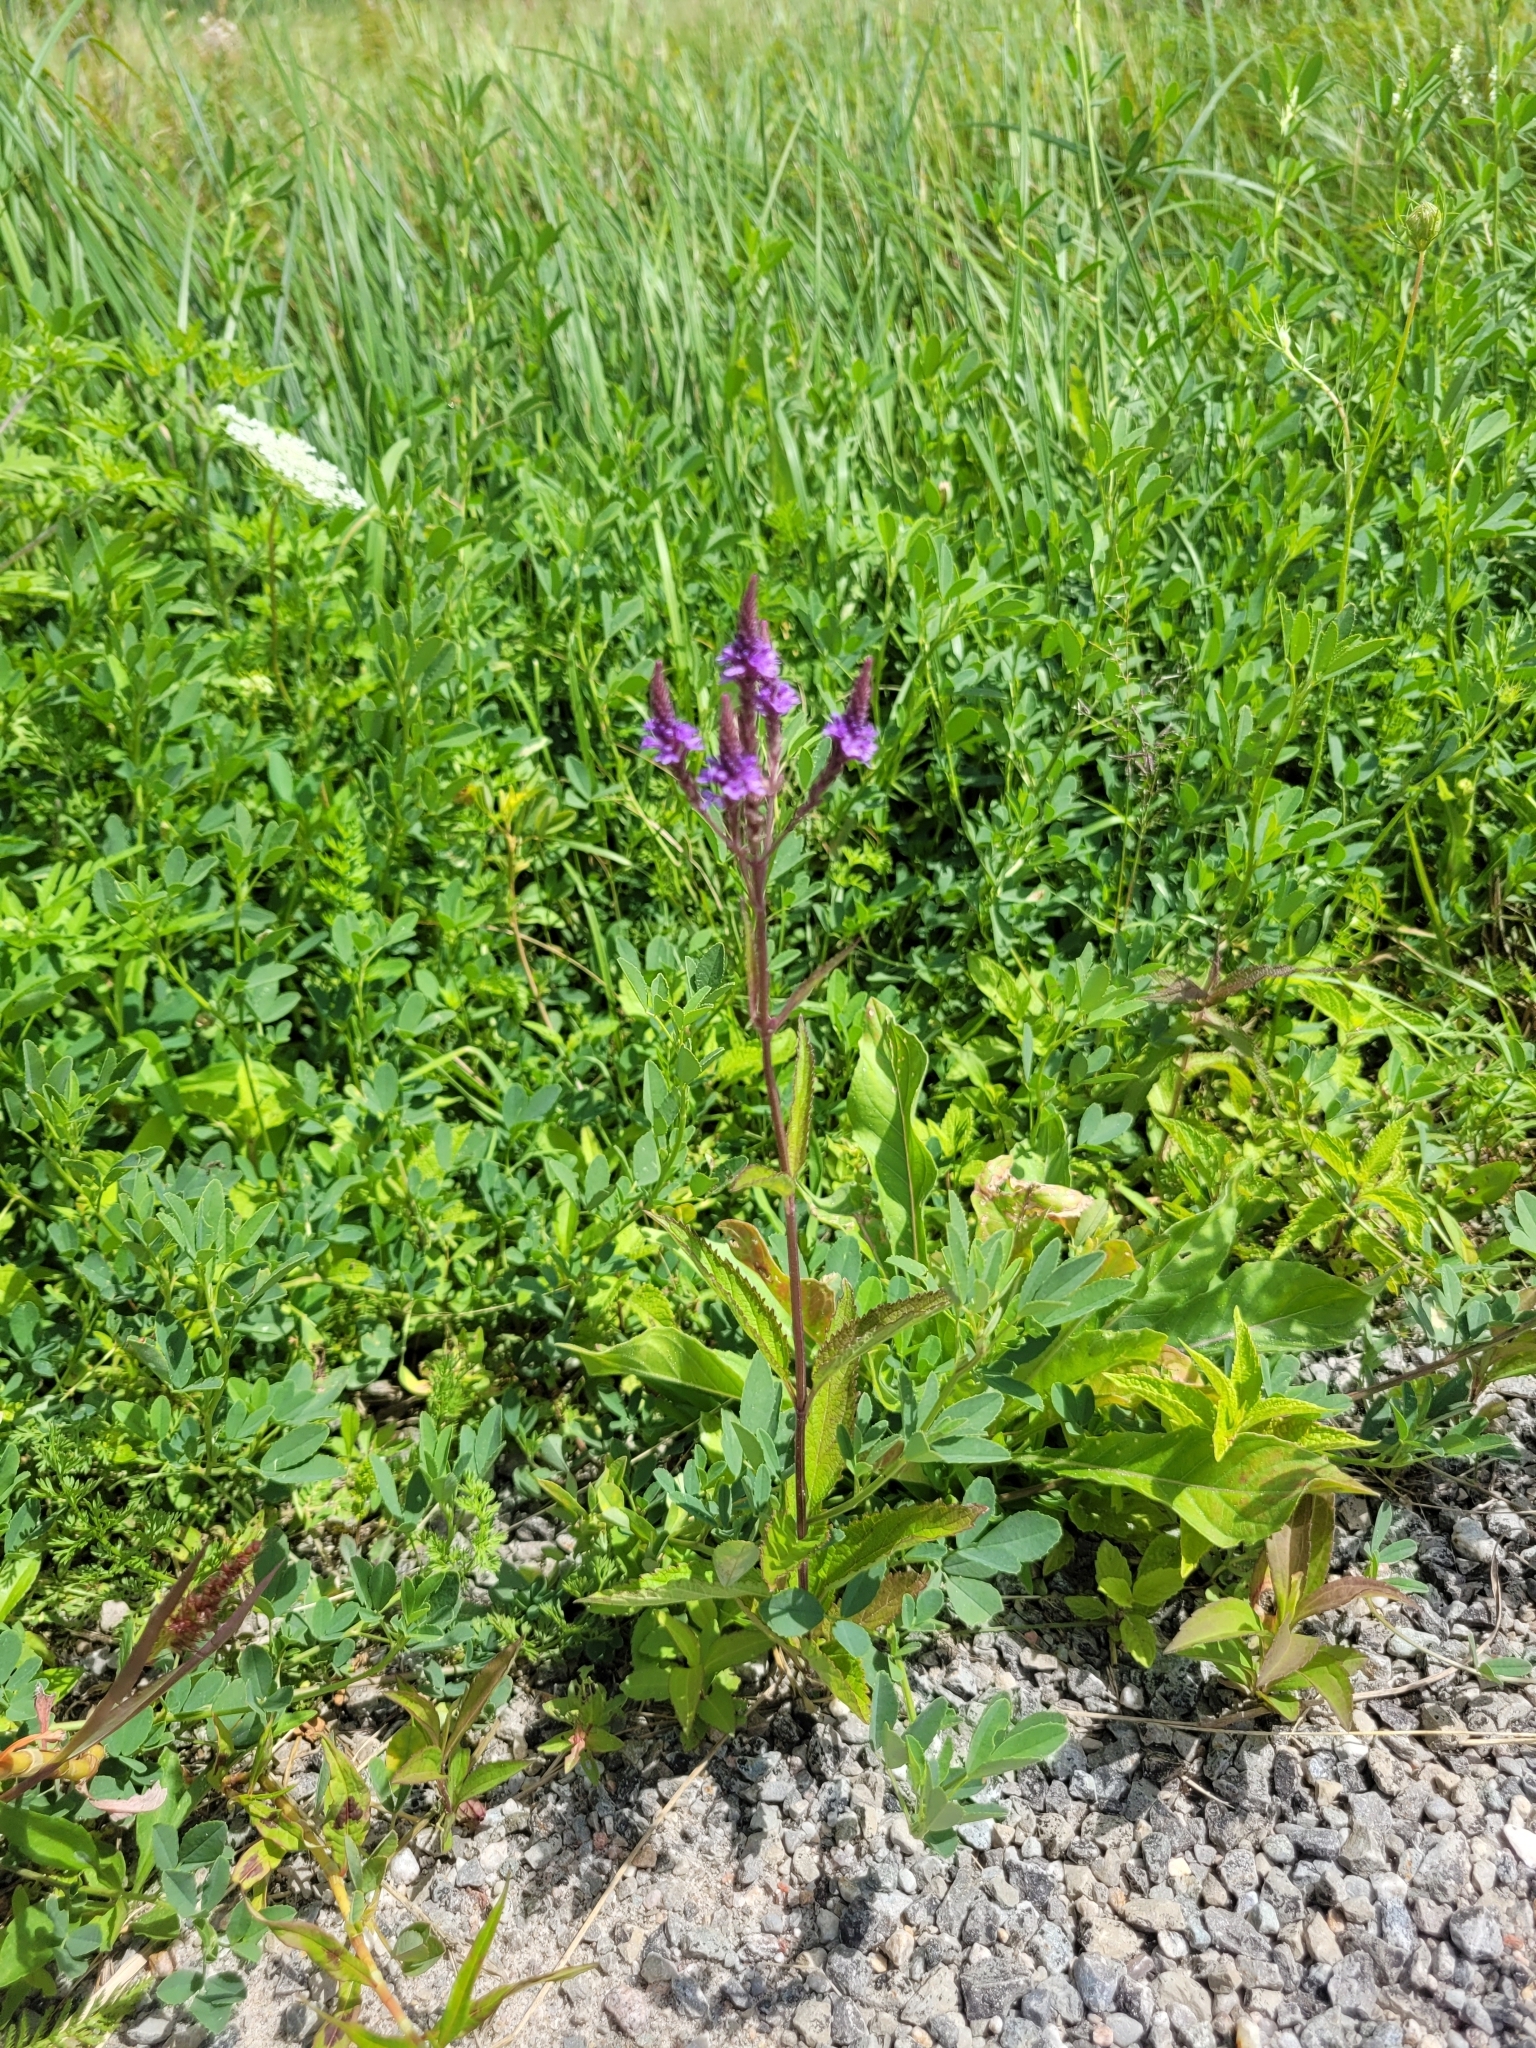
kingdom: Plantae
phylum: Tracheophyta
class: Magnoliopsida
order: Lamiales
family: Verbenaceae
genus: Verbena
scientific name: Verbena hastata
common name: American blue vervain
